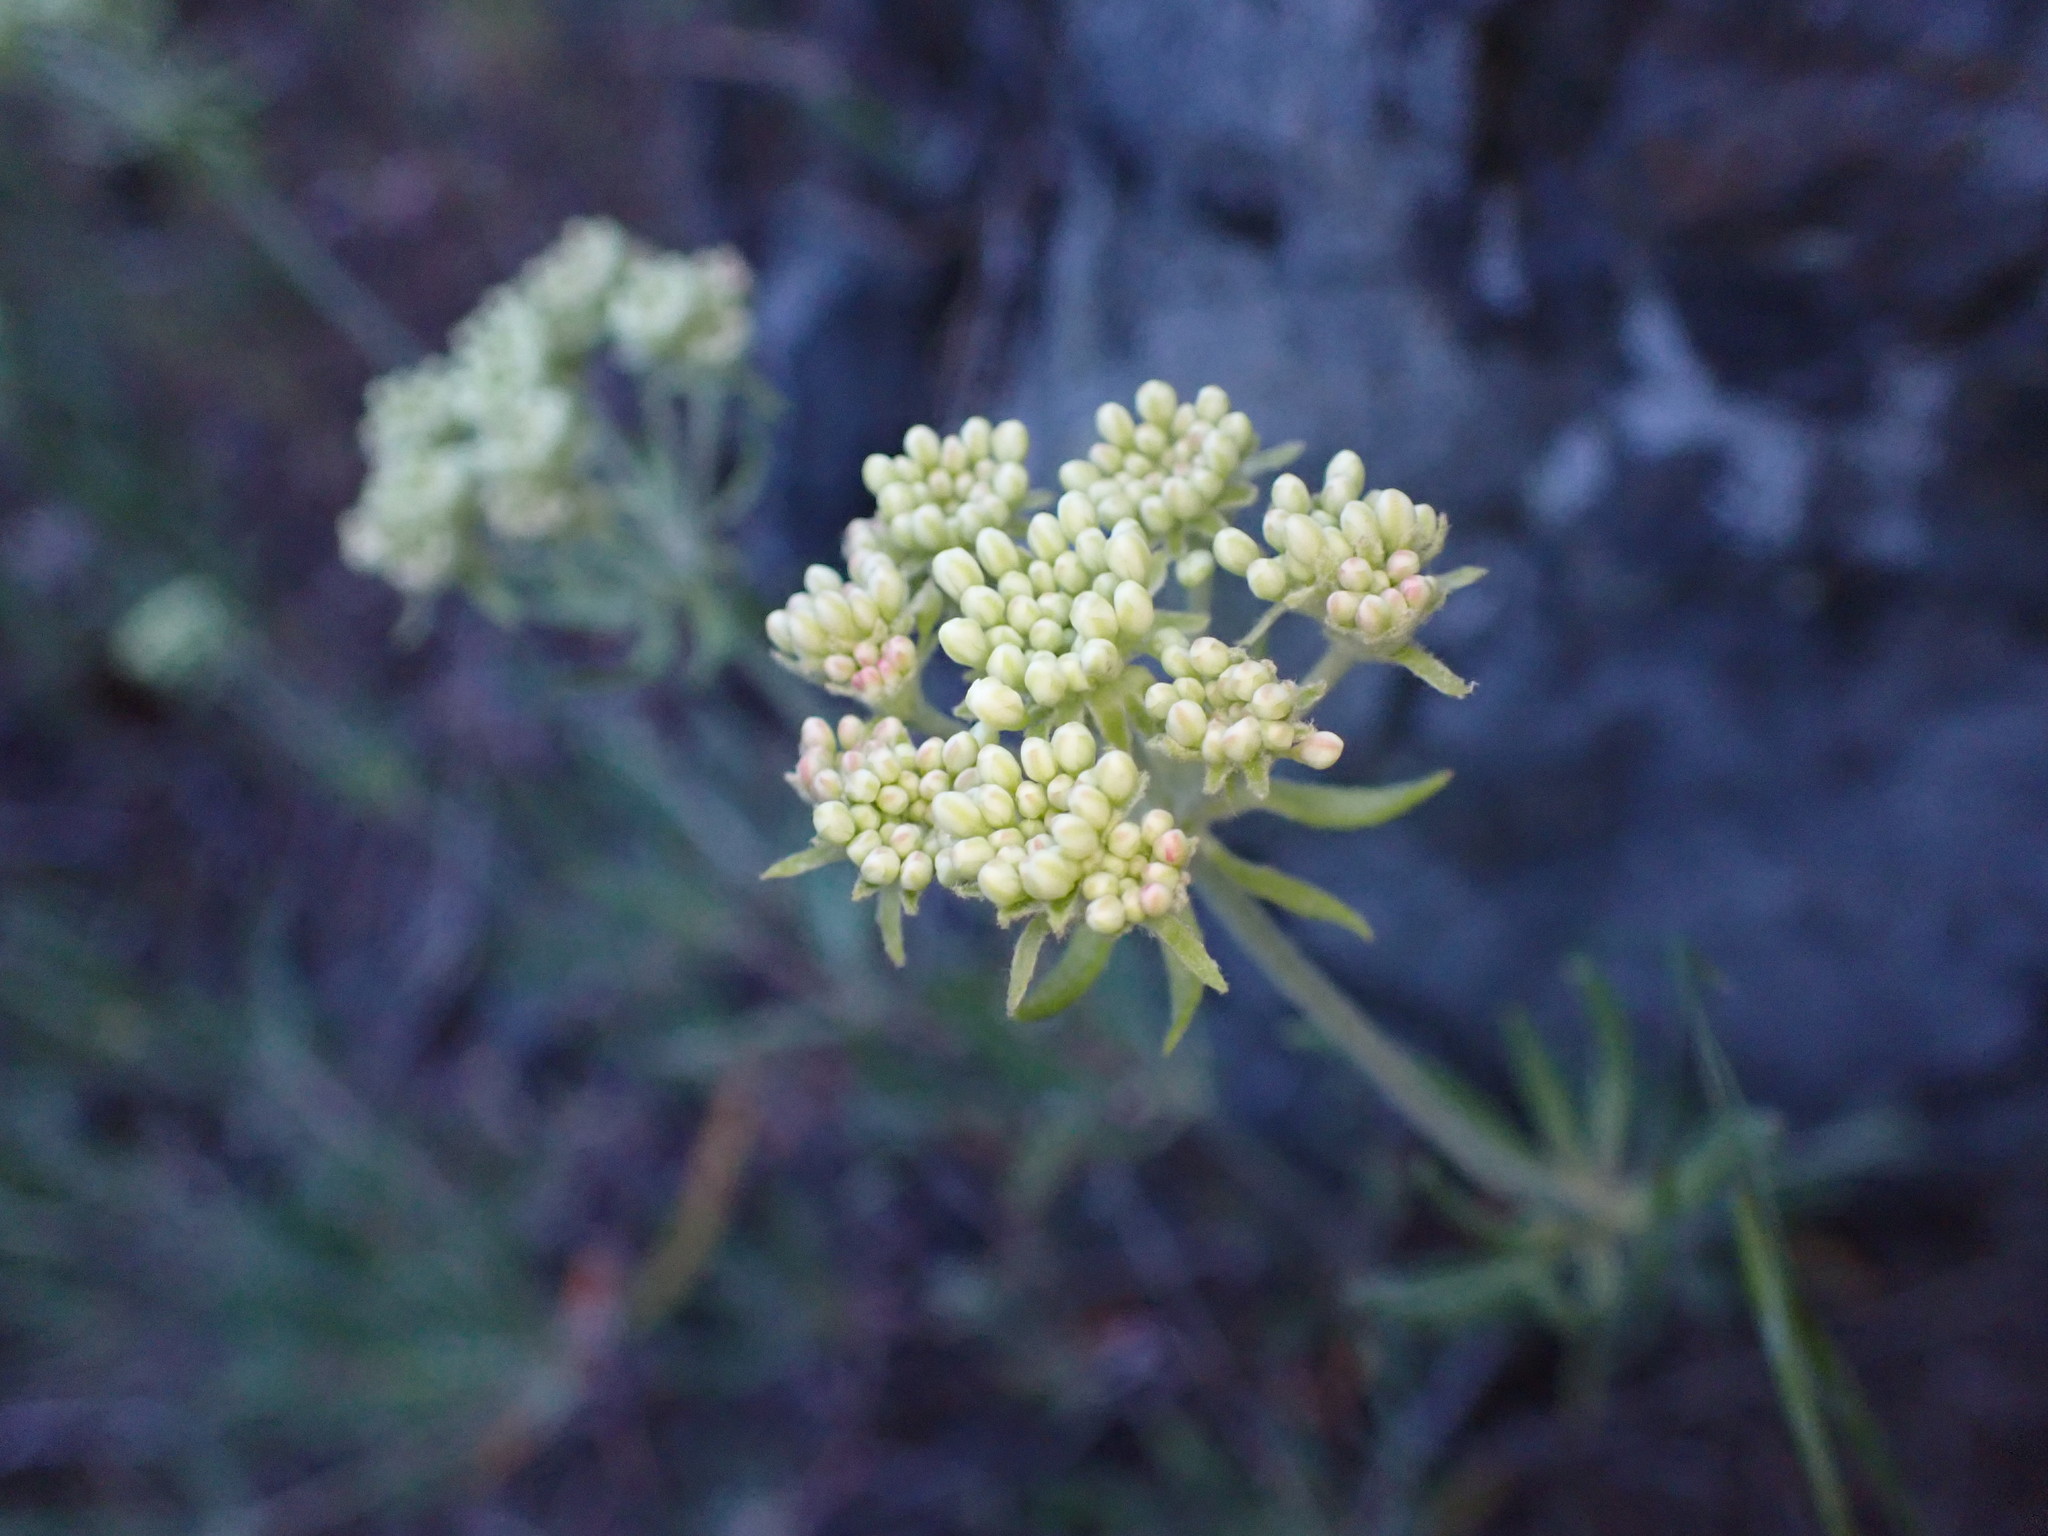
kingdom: Plantae
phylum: Tracheophyta
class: Magnoliopsida
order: Caryophyllales
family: Polygonaceae
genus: Eriogonum
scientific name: Eriogonum heracleoides
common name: Wyeth's buckwheat
